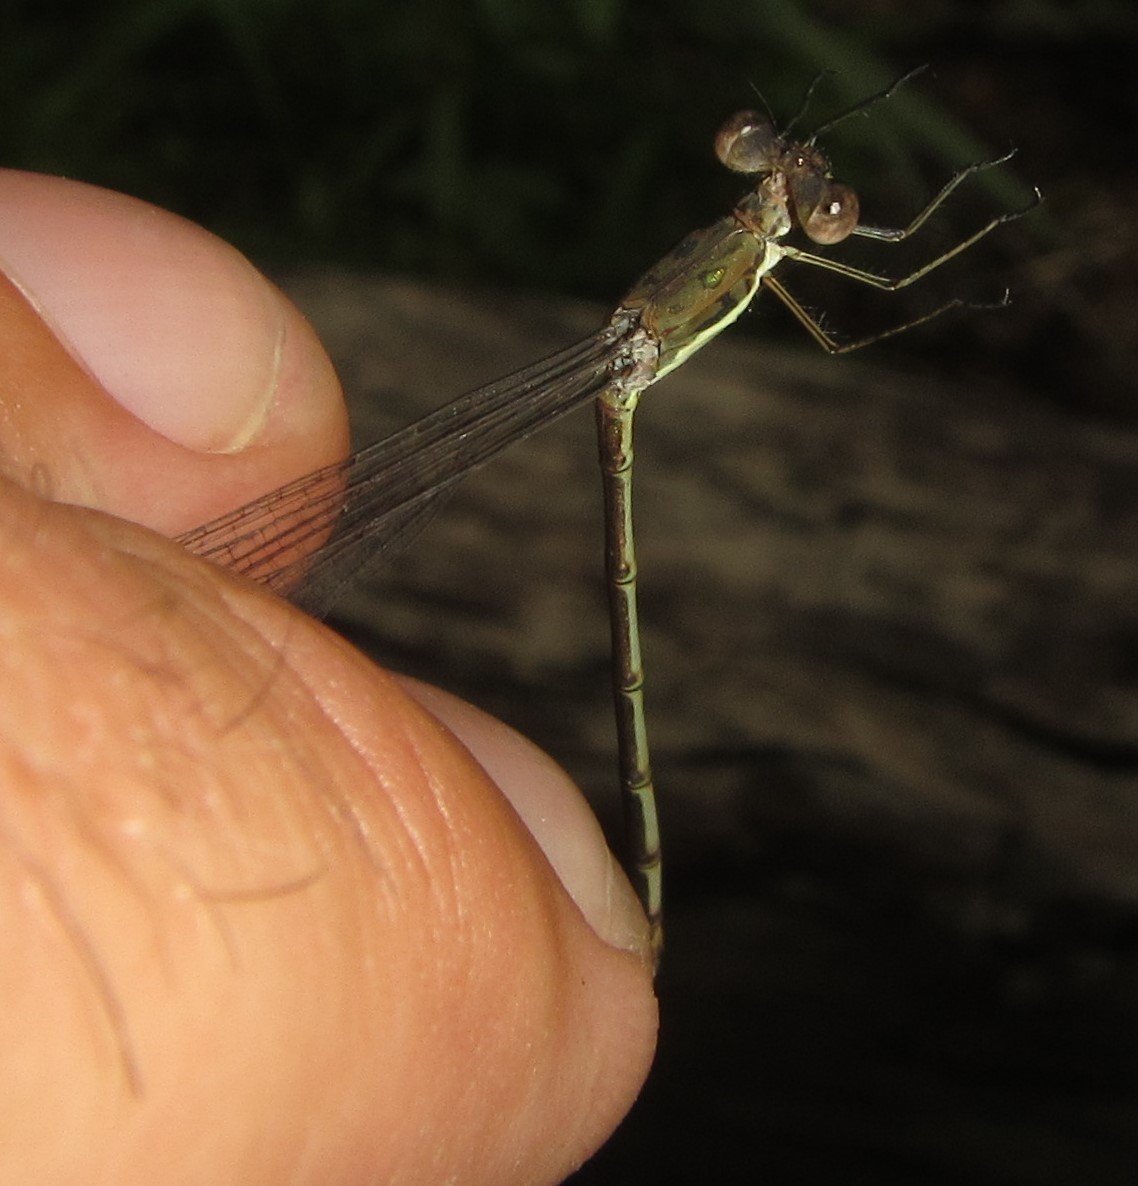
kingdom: Animalia
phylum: Arthropoda
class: Insecta
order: Odonata
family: Lestidae
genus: Lestes
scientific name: Lestes pinheyi
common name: Pinhey's spreadwing
